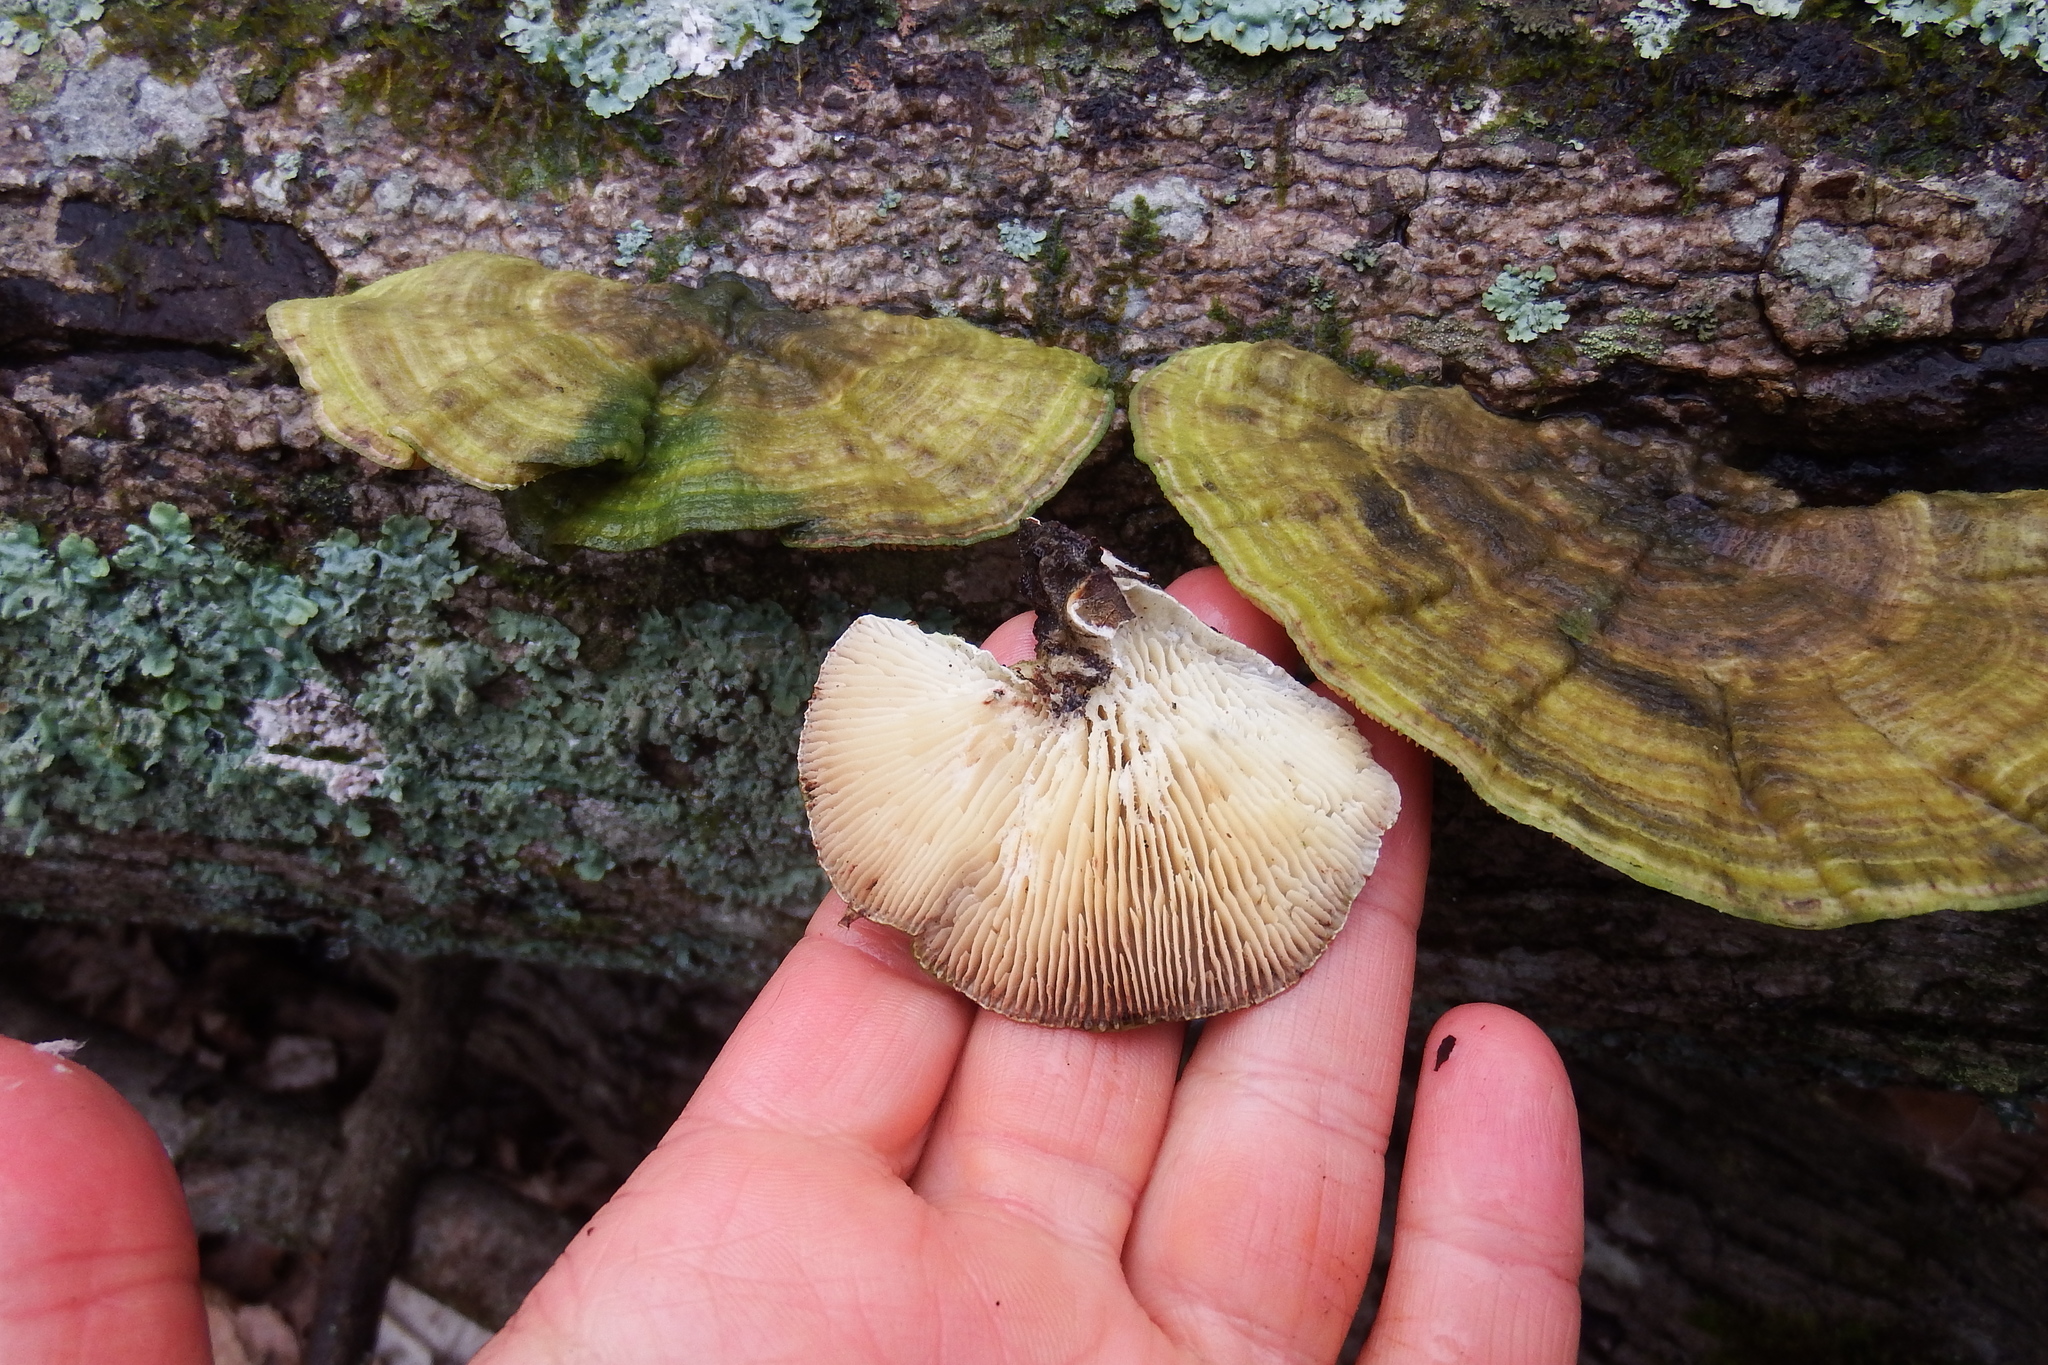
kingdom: Fungi
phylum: Basidiomycota
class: Agaricomycetes
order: Polyporales
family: Polyporaceae
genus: Lenzites
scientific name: Lenzites betulinus
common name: Birch mazegill
